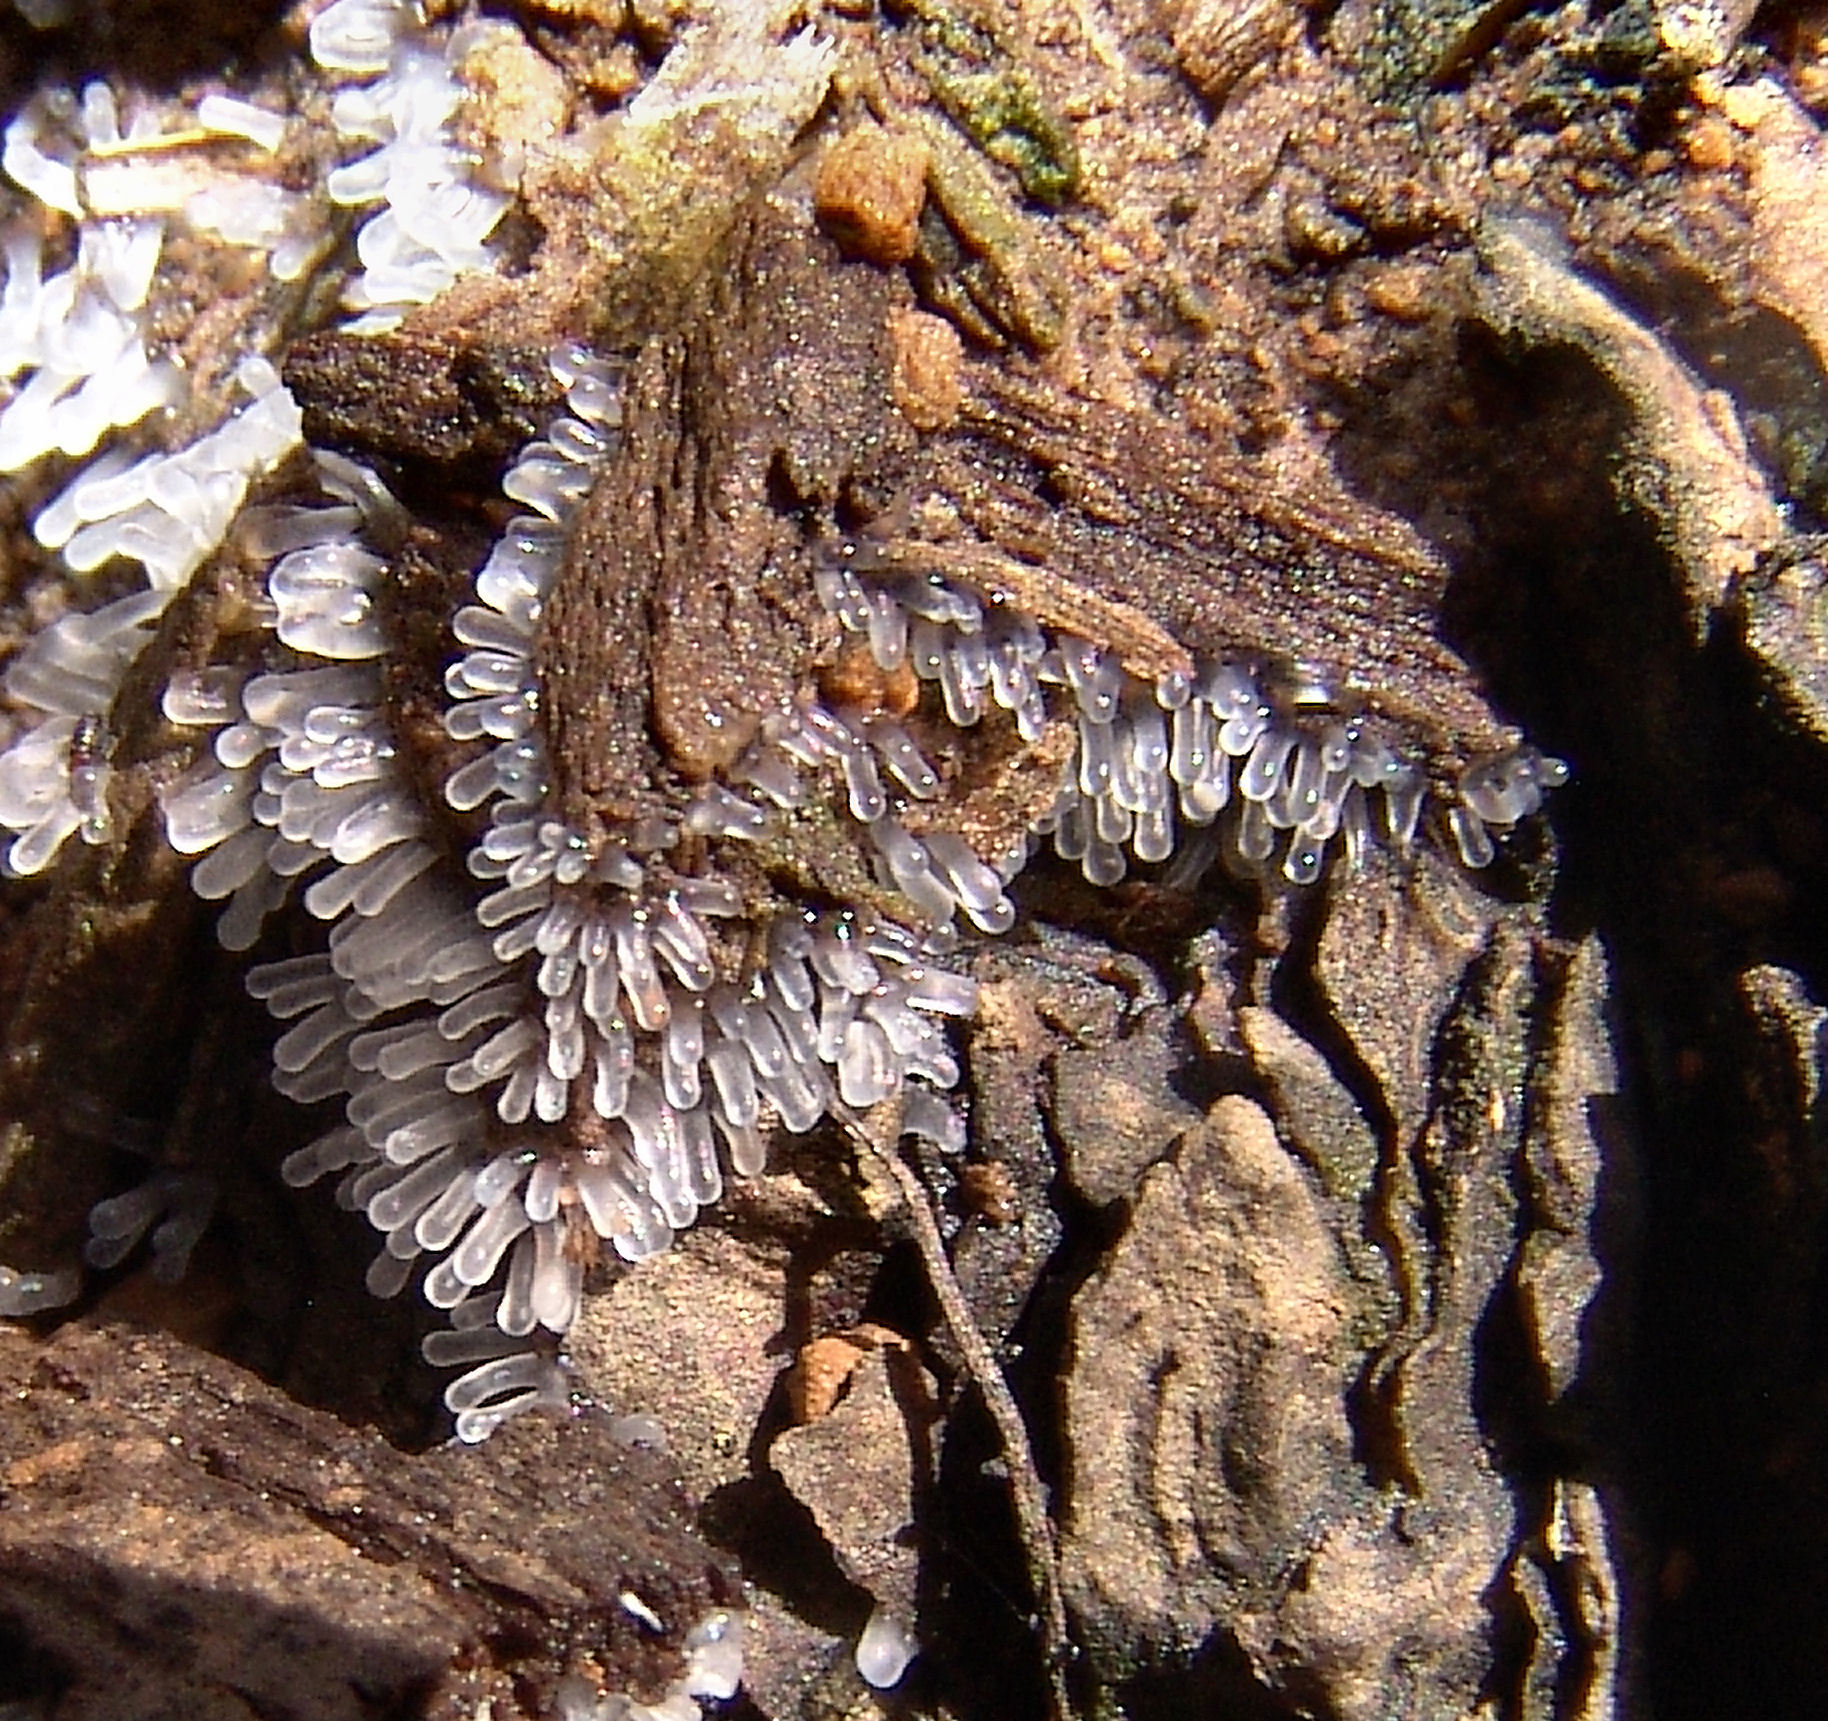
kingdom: Protozoa
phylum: Mycetozoa
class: Protosteliomycetes
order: Ceratiomyxales
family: Ceratiomyxaceae
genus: Ceratiomyxa
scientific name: Ceratiomyxa fruticulosa
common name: Honeycomb coral slime mold
